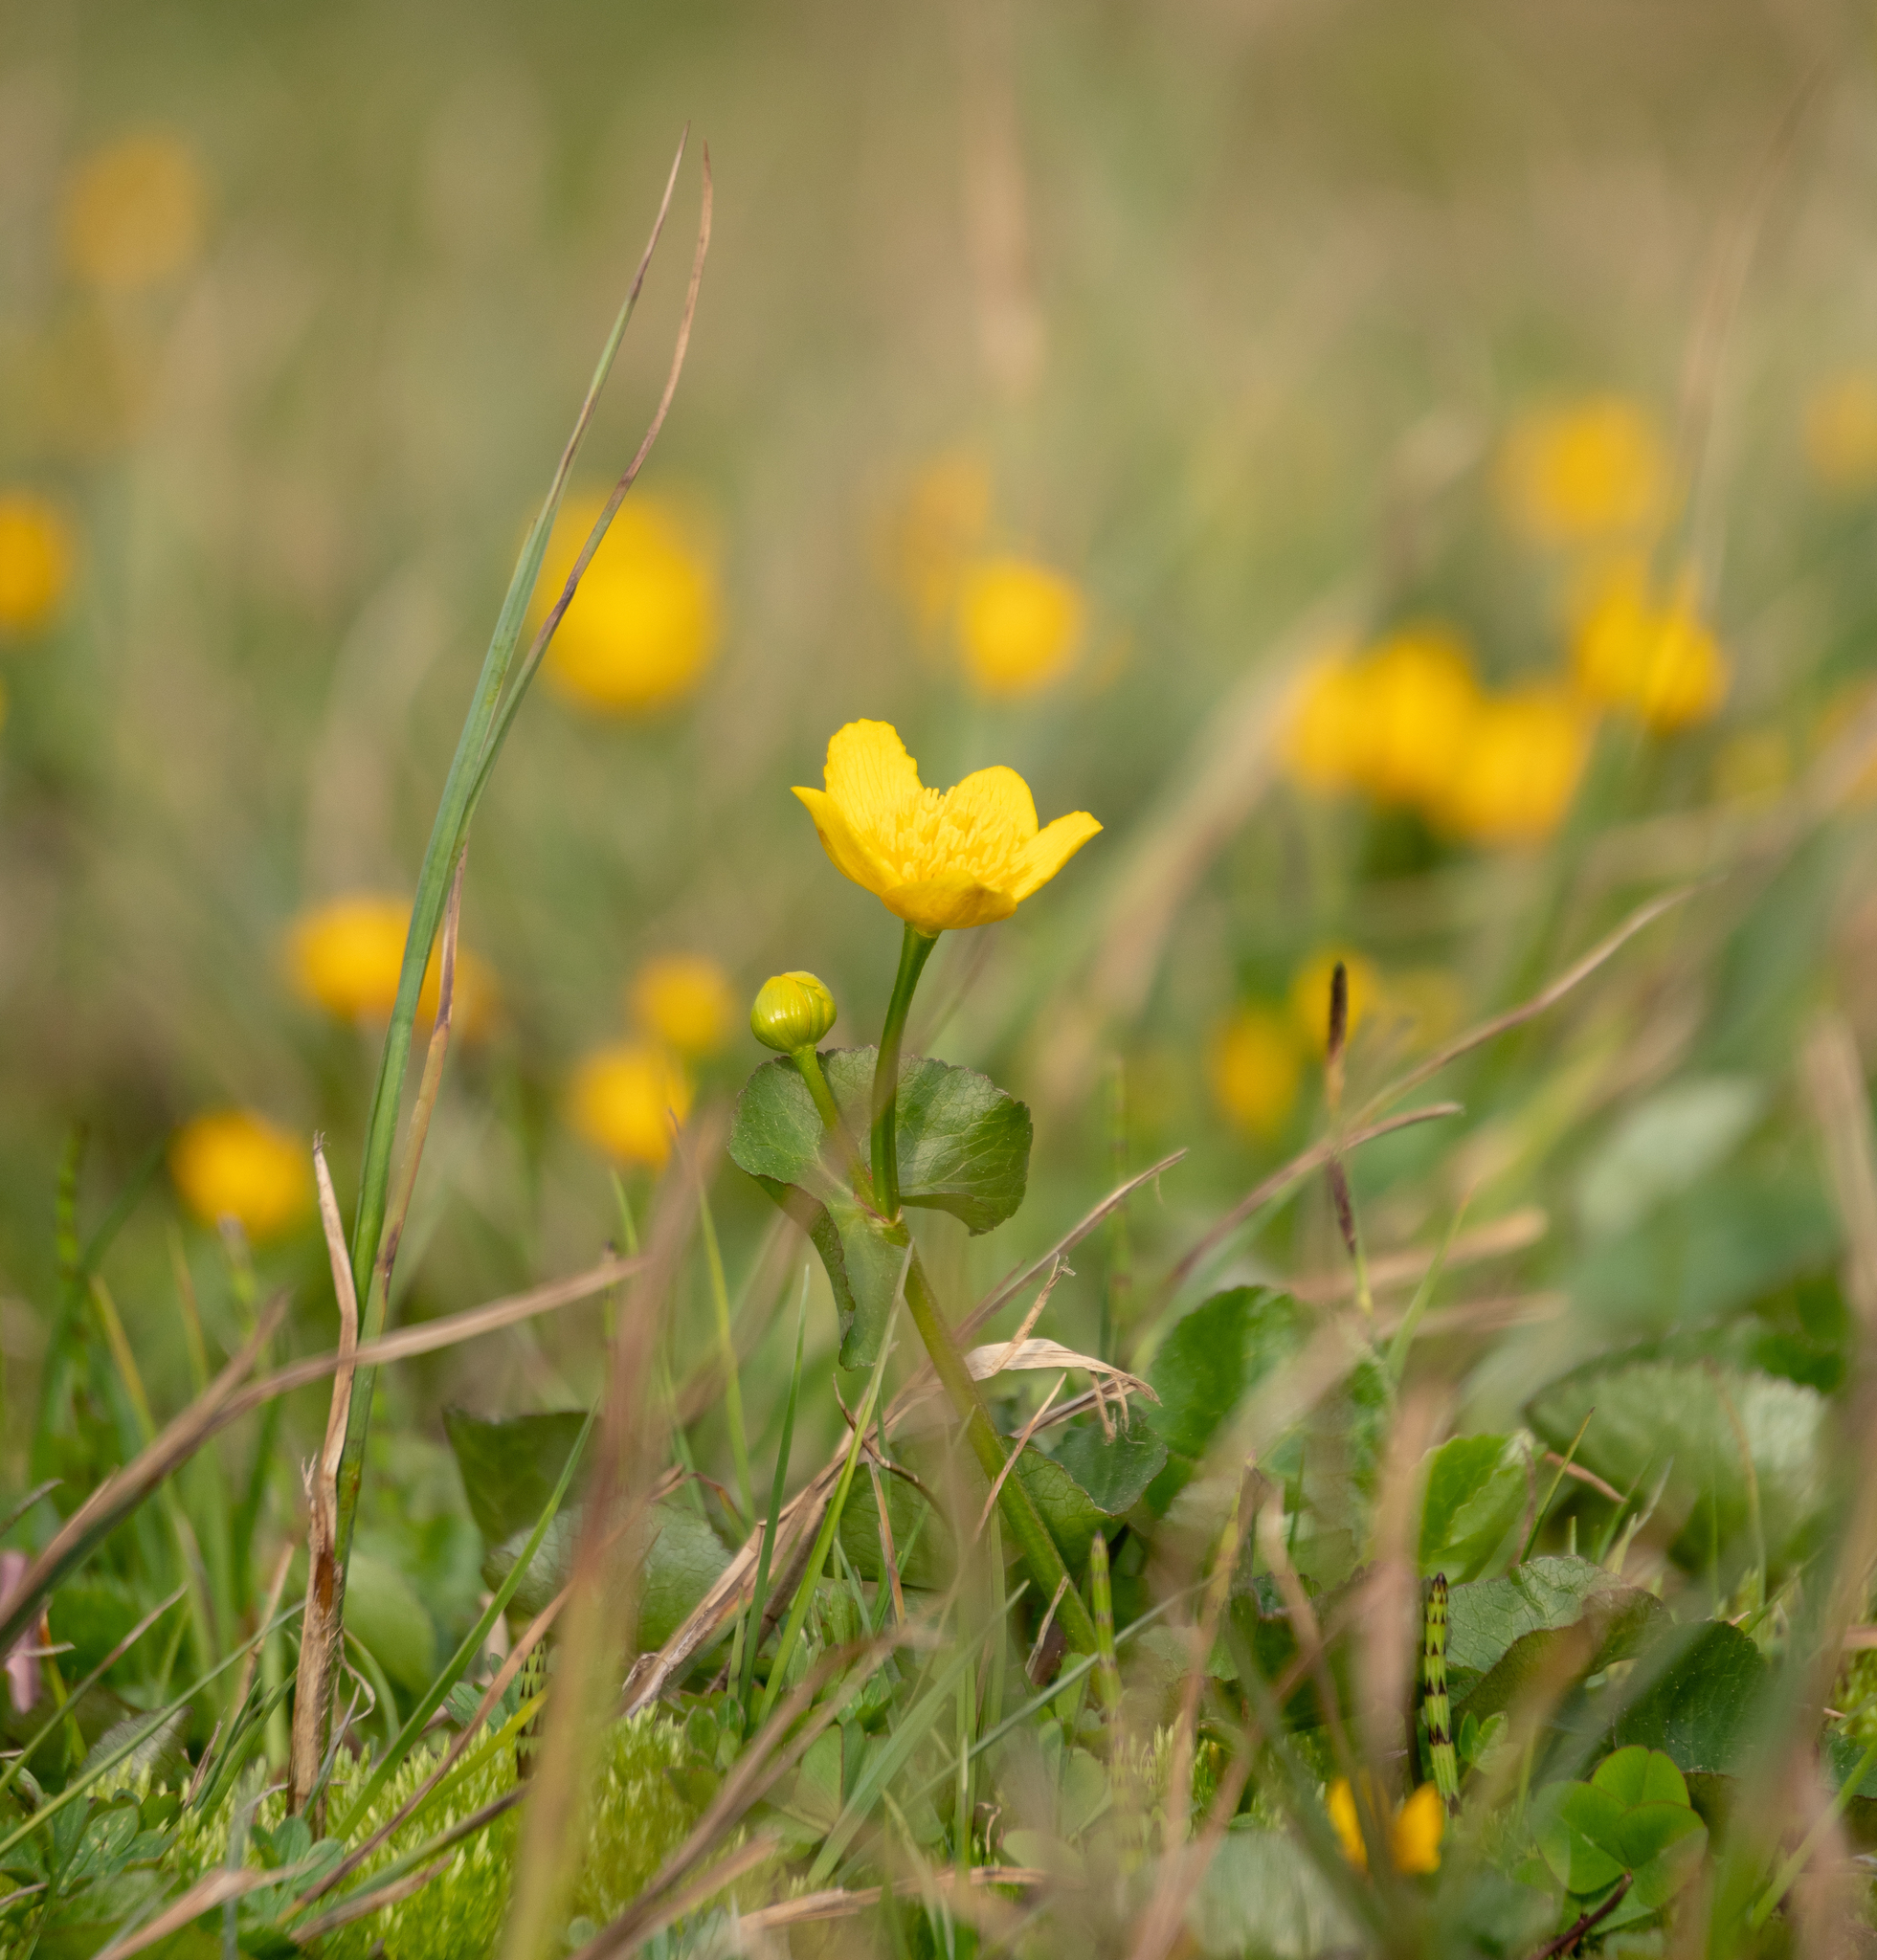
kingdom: Plantae
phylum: Tracheophyta
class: Magnoliopsida
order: Ranunculales
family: Ranunculaceae
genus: Caltha
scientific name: Caltha palustris
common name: Marsh marigold
